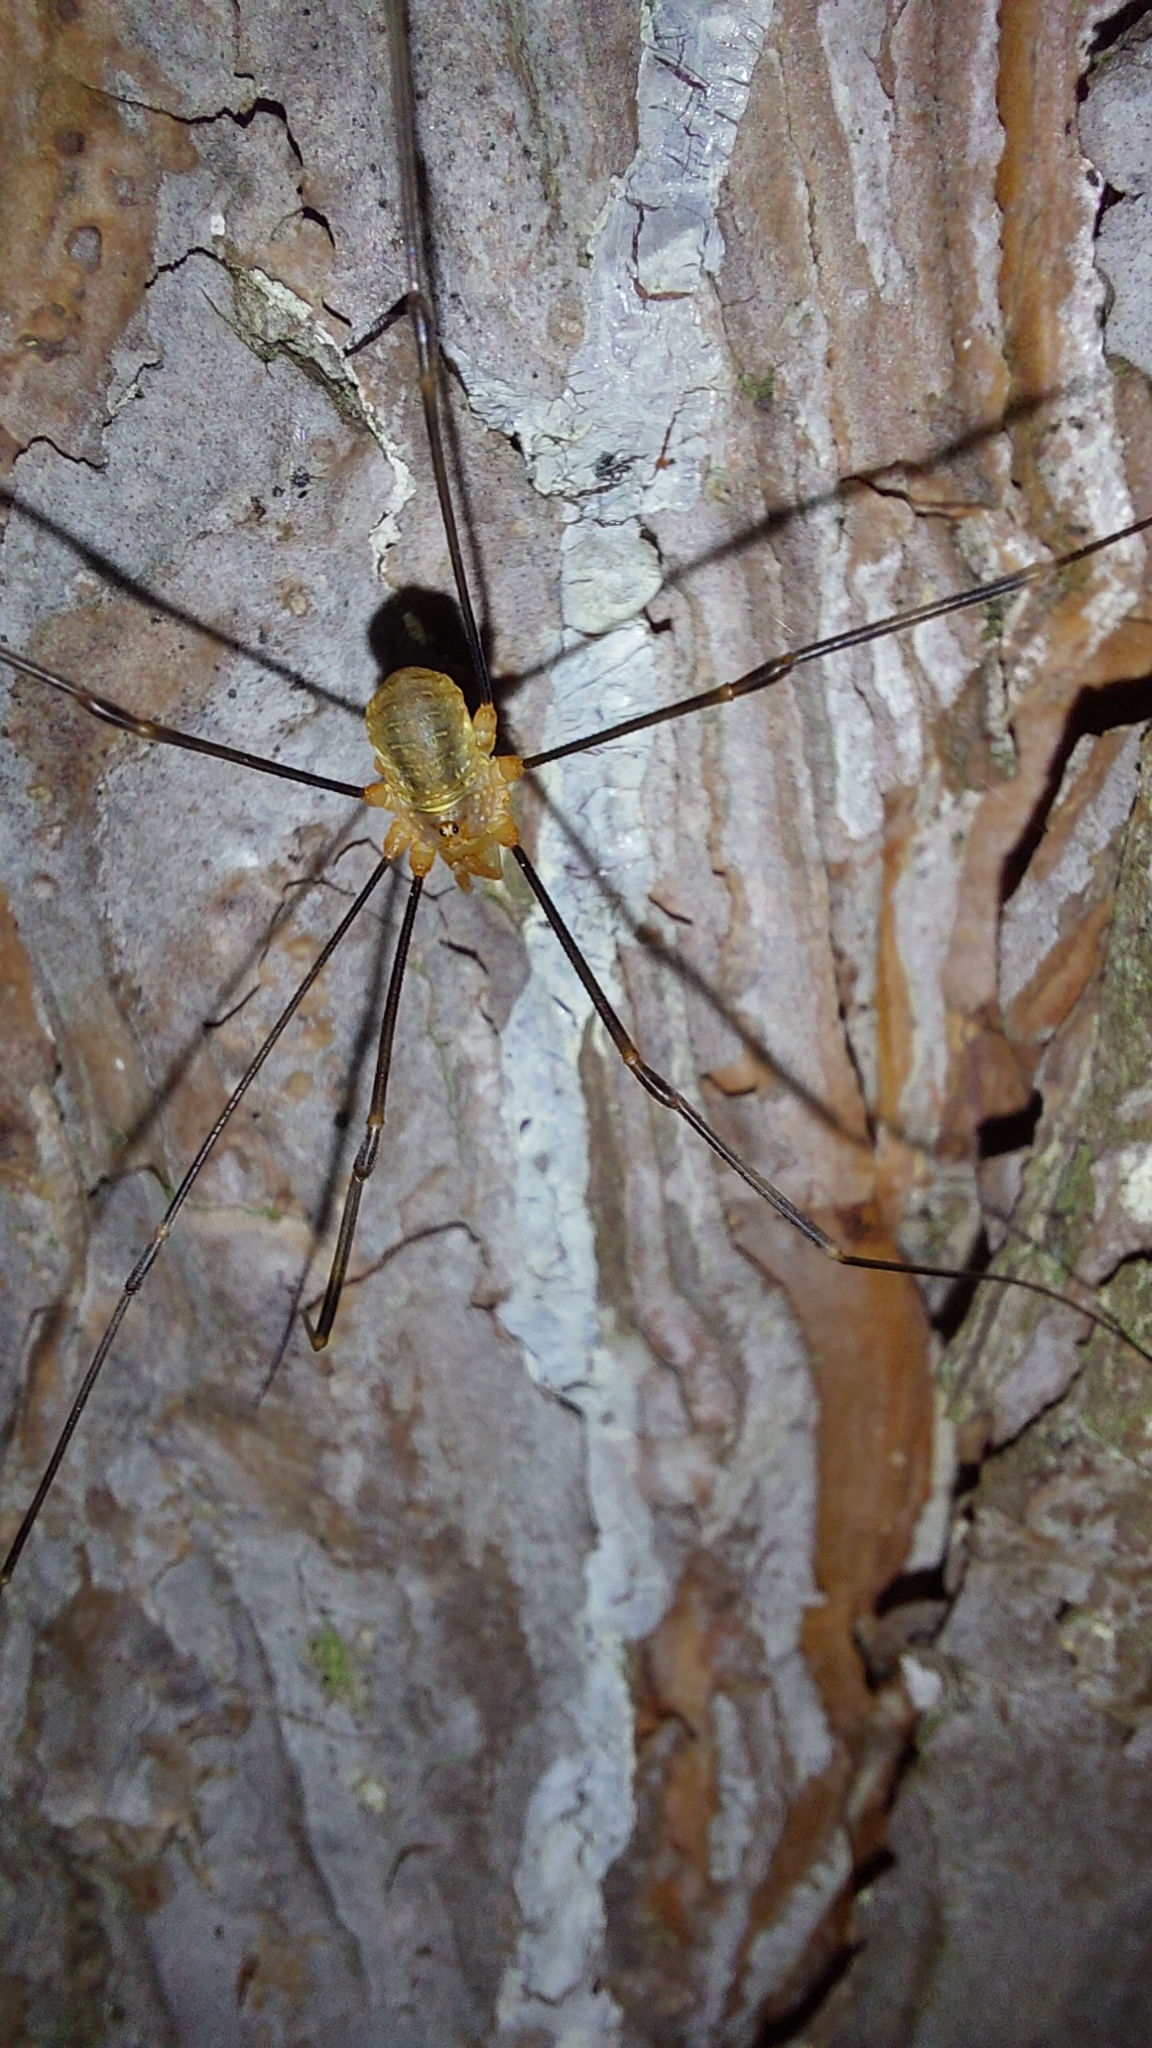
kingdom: Animalia
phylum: Arthropoda
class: Arachnida
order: Opiliones
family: Phalangiidae
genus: Opilio
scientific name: Opilio canestrinii
